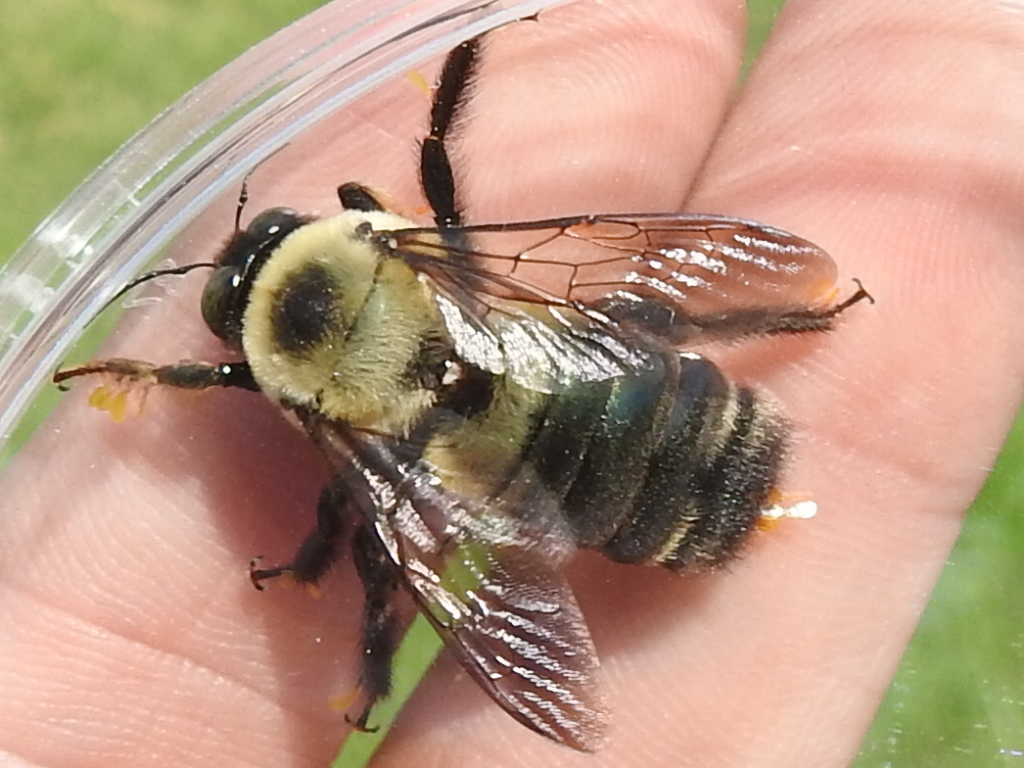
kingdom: Animalia
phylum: Arthropoda
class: Insecta
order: Hymenoptera
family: Apidae
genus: Xylocopa
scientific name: Xylocopa virginica
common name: Carpenter bee
